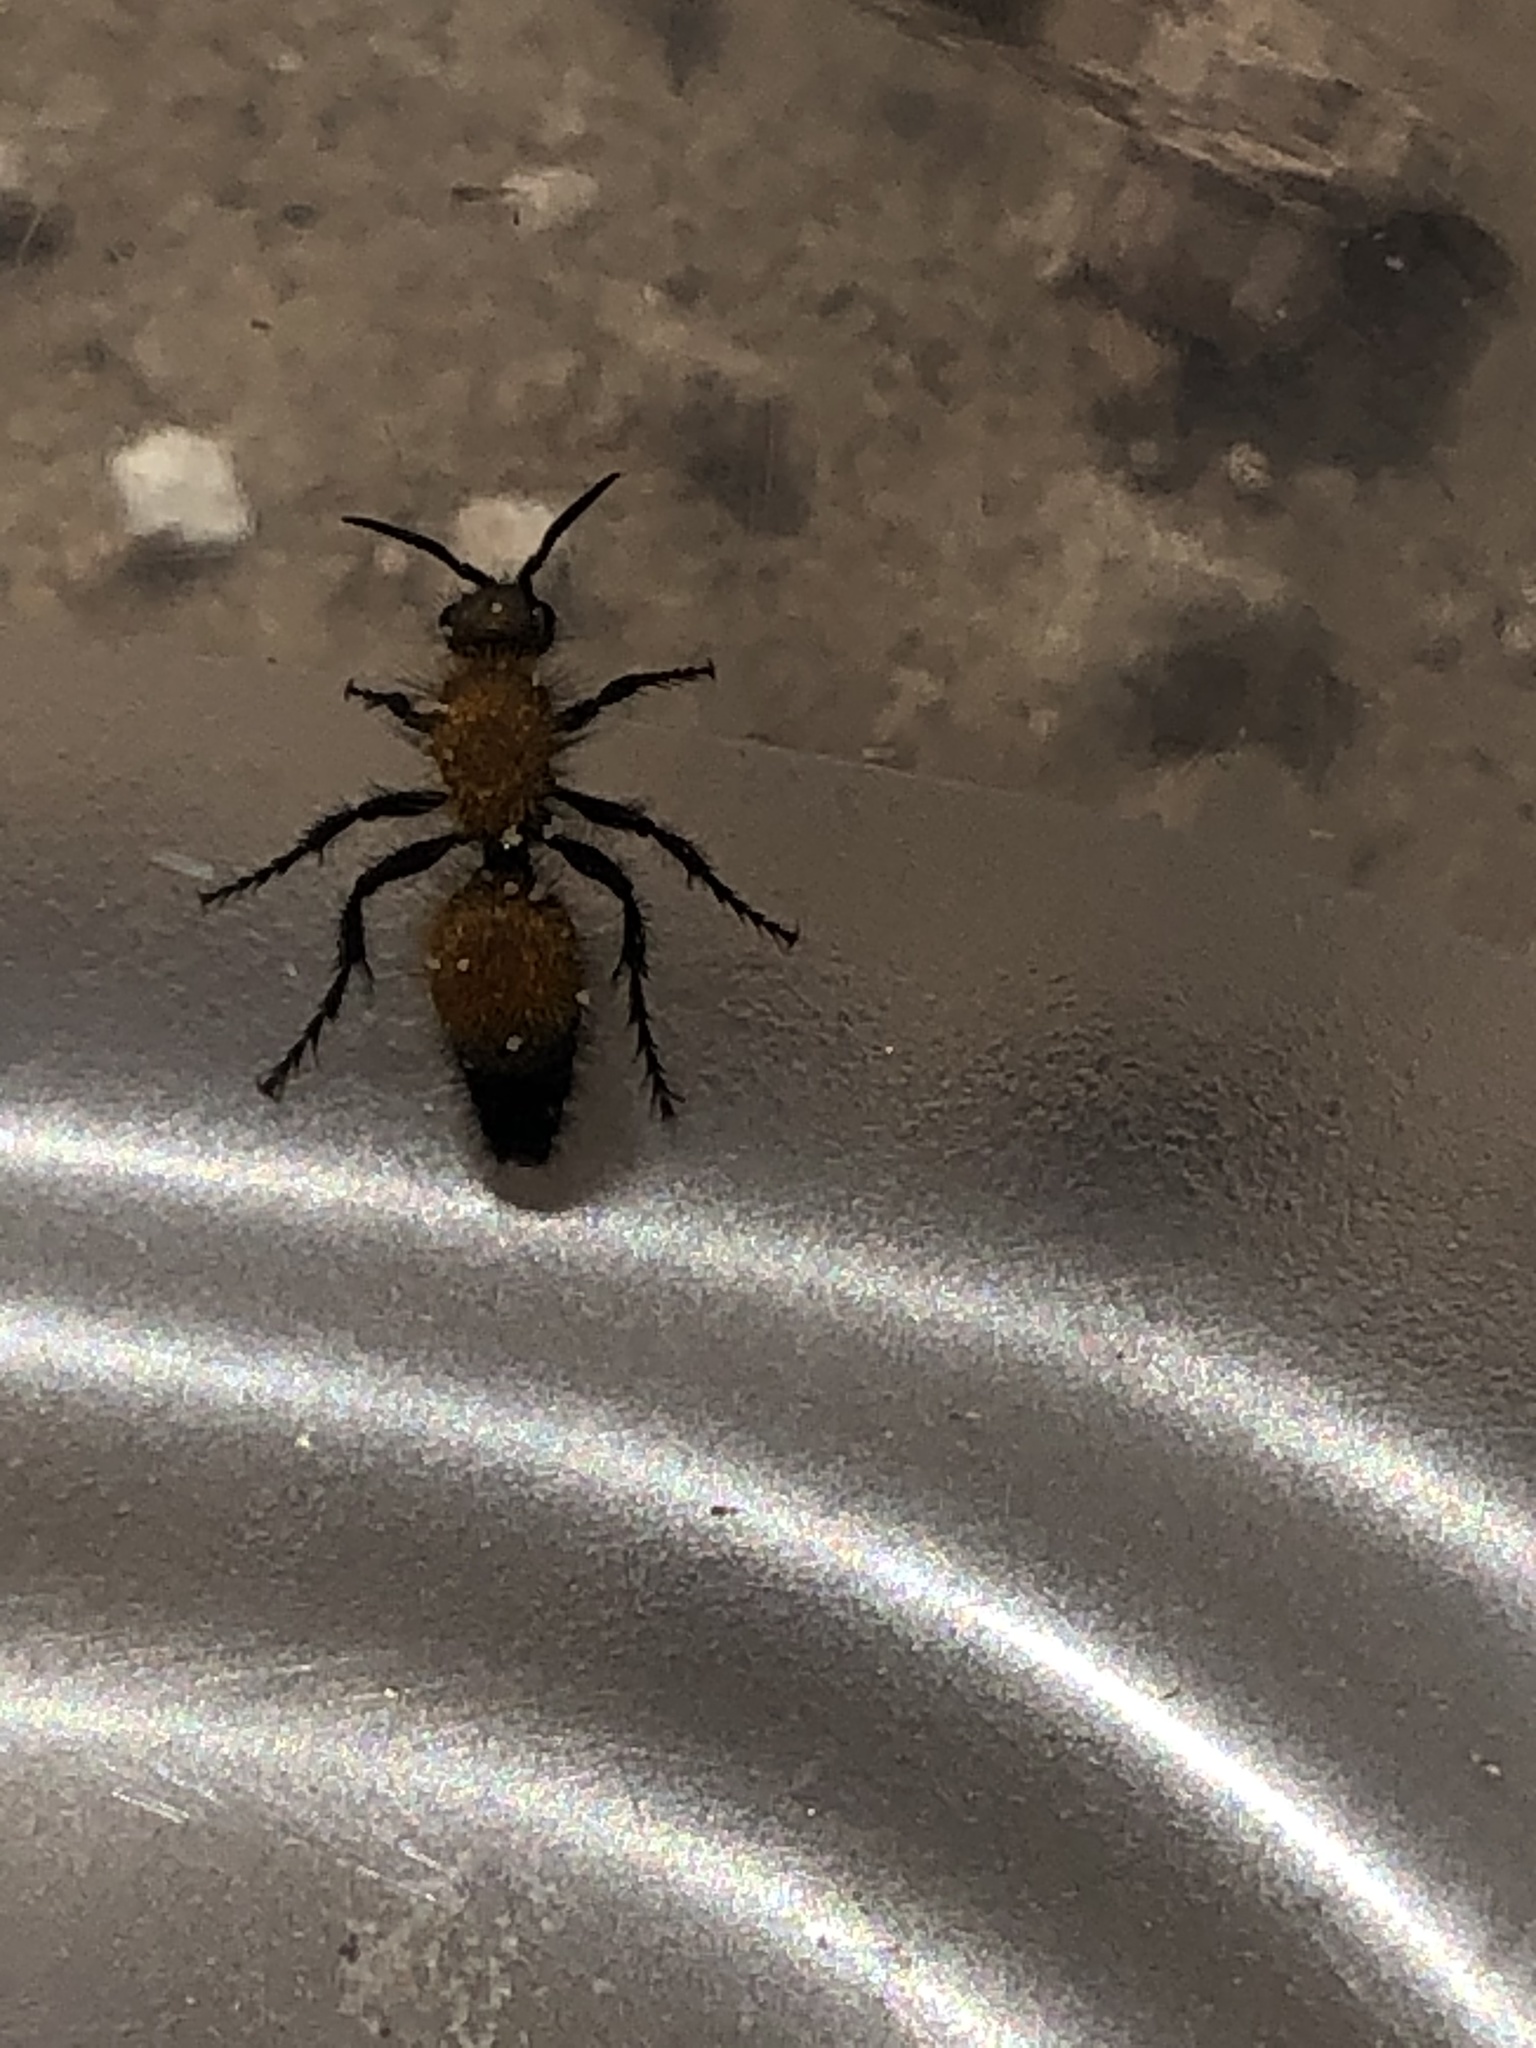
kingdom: Animalia
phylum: Arthropoda
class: Insecta
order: Hymenoptera
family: Mutillidae
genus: Dasymutilla
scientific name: Dasymutilla
